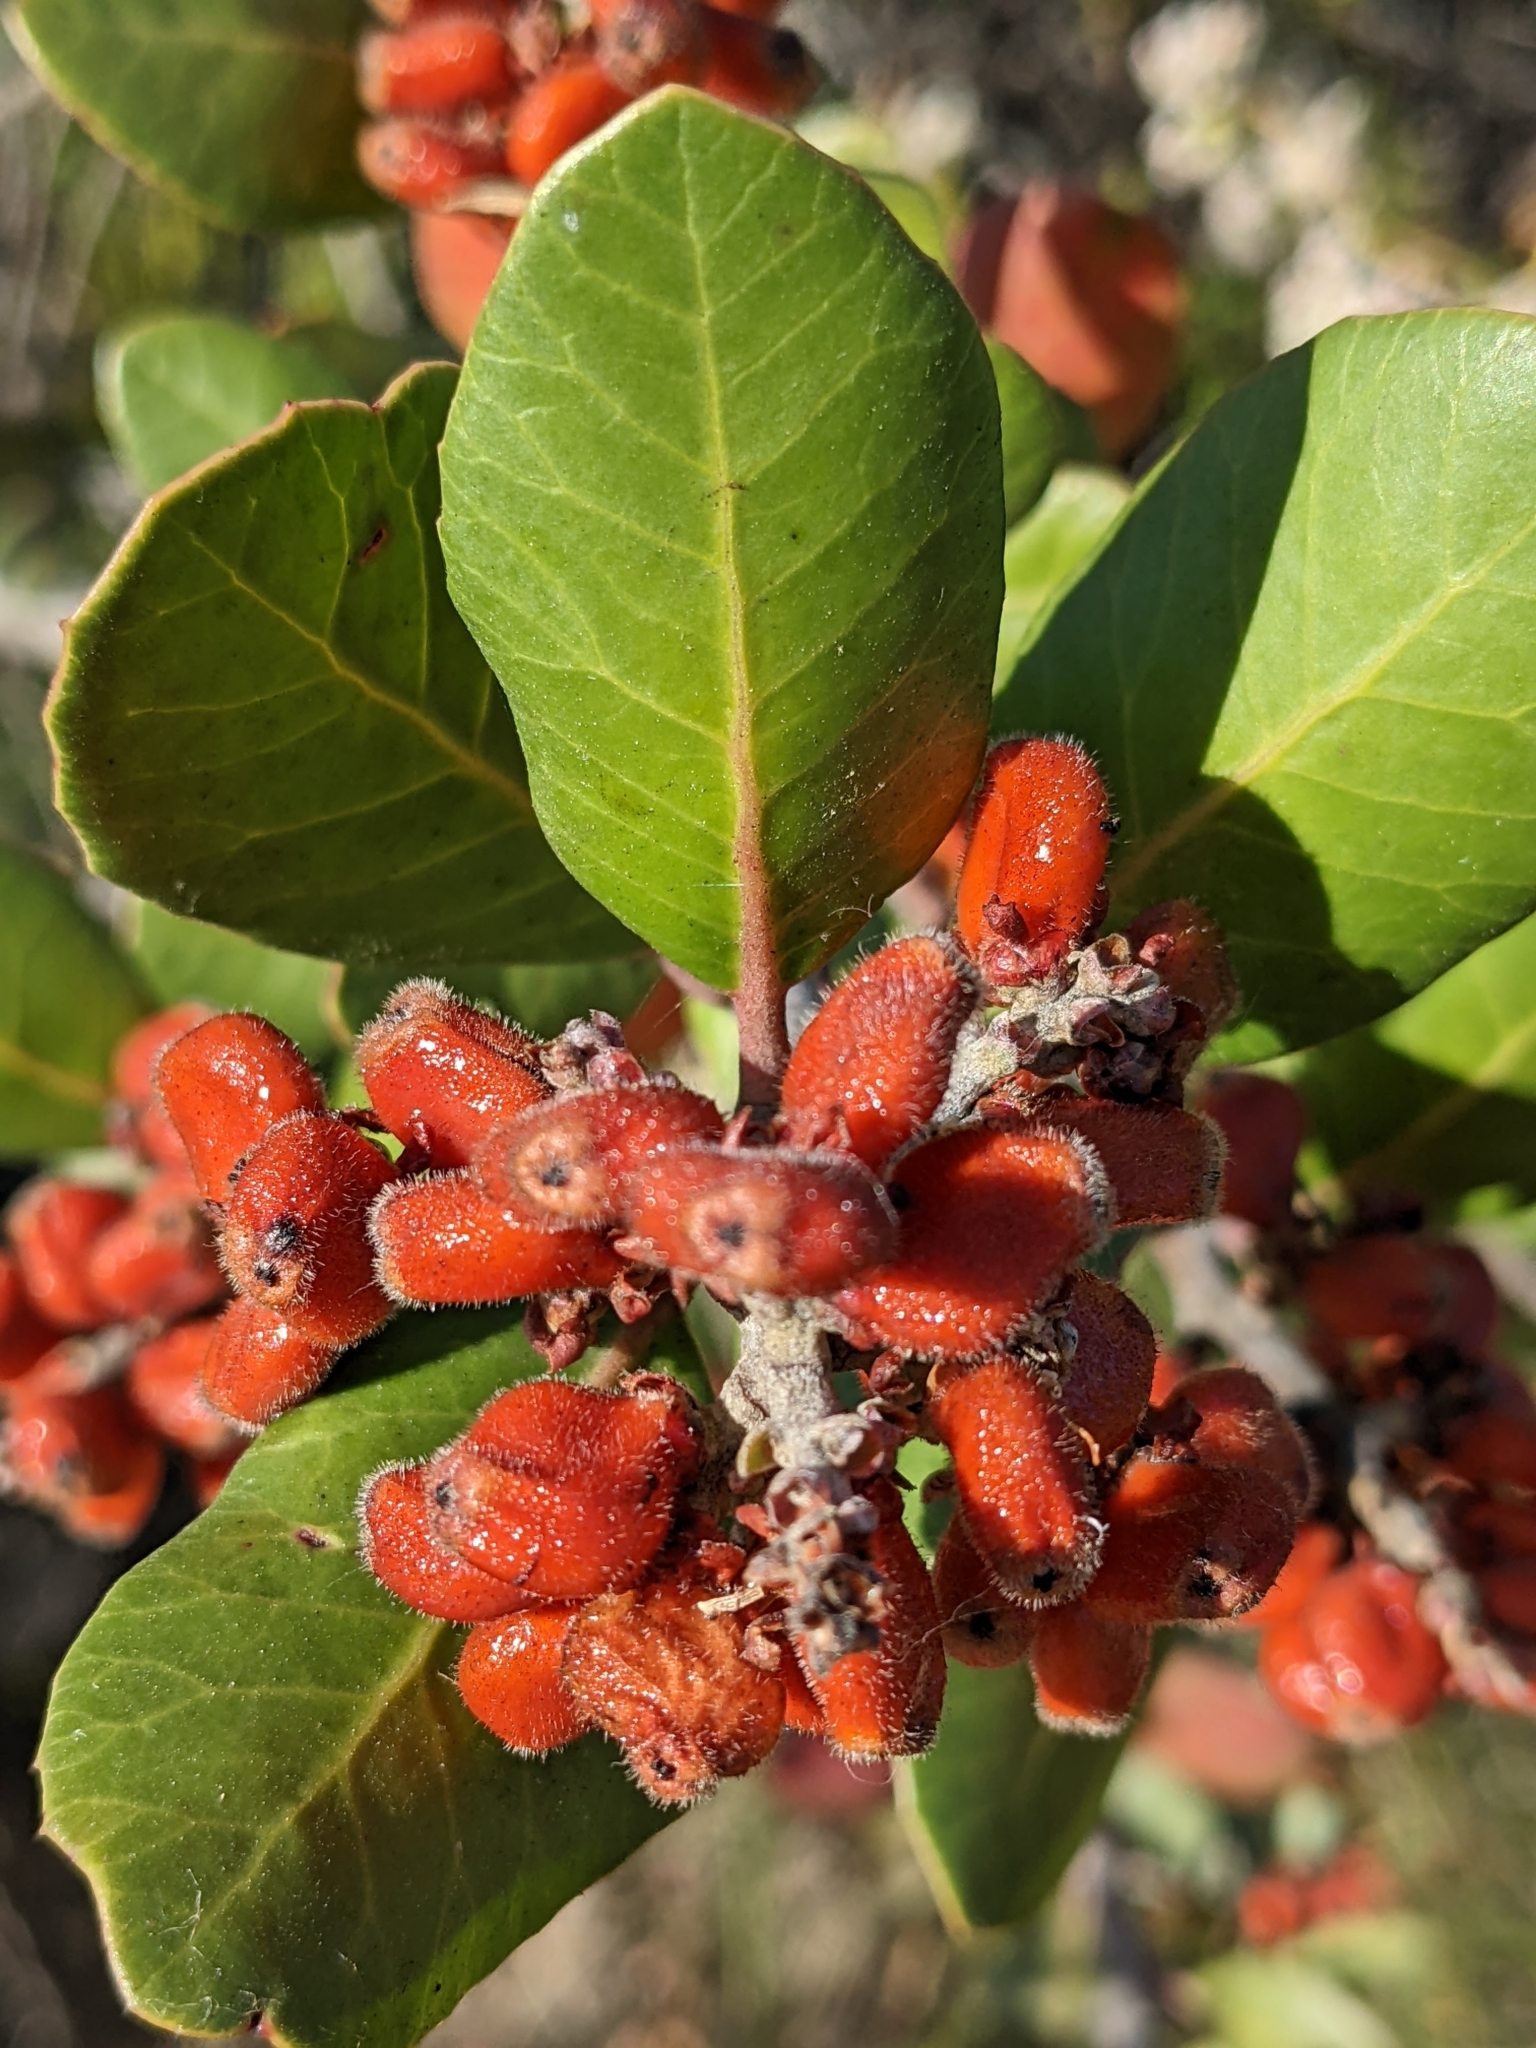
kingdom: Plantae
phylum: Tracheophyta
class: Magnoliopsida
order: Sapindales
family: Anacardiaceae
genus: Rhus
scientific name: Rhus integrifolia
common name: Lemonade sumac
